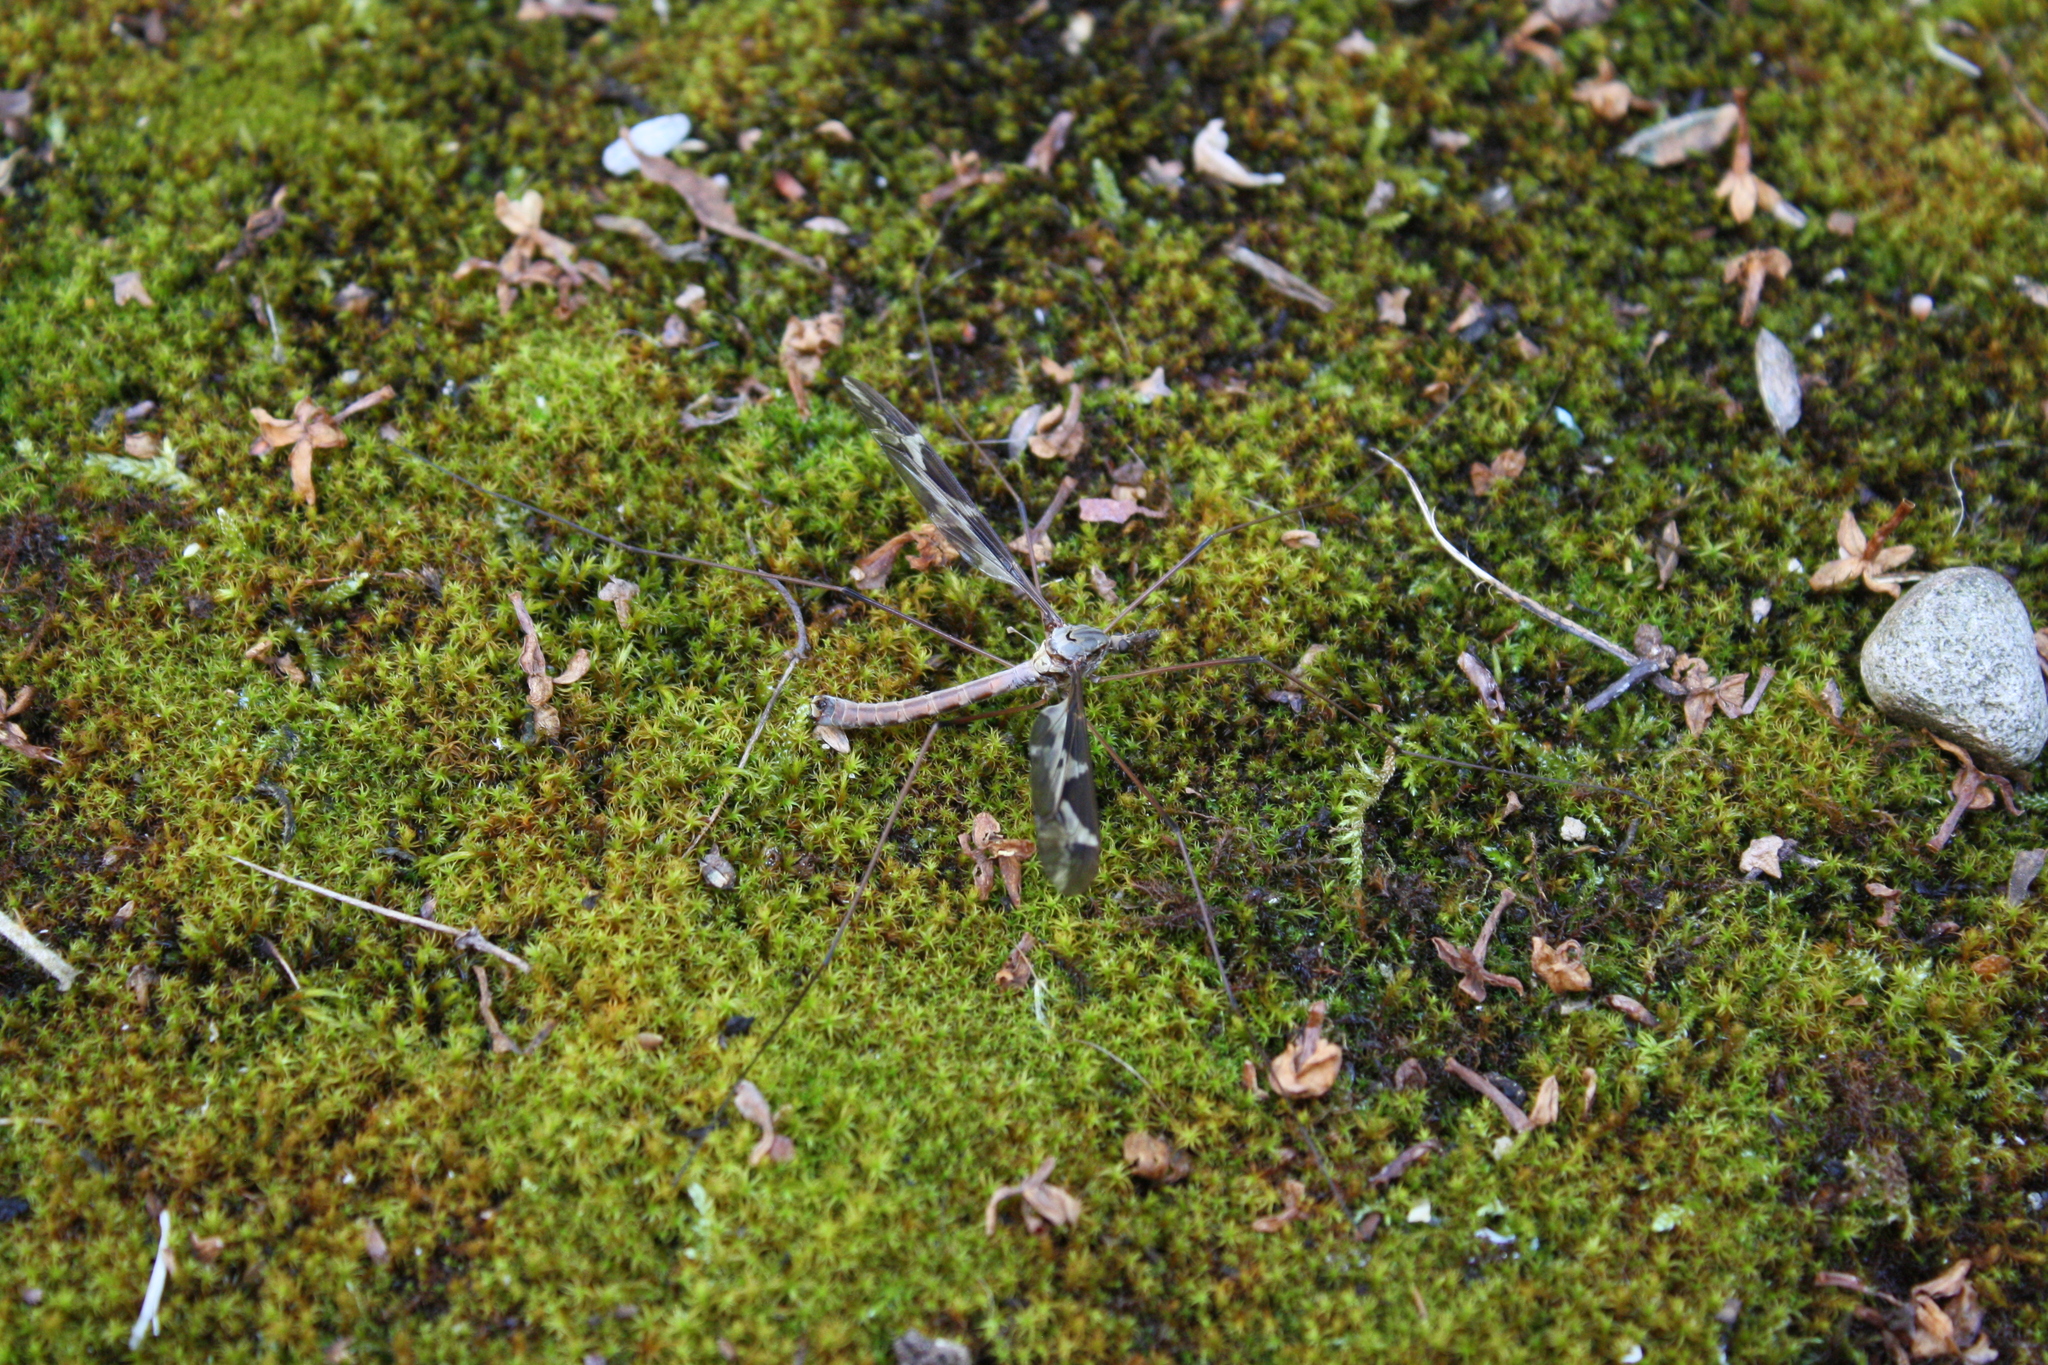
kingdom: Animalia
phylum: Arthropoda
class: Insecta
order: Diptera
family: Tipulidae
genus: Tipula
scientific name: Tipula maxima
